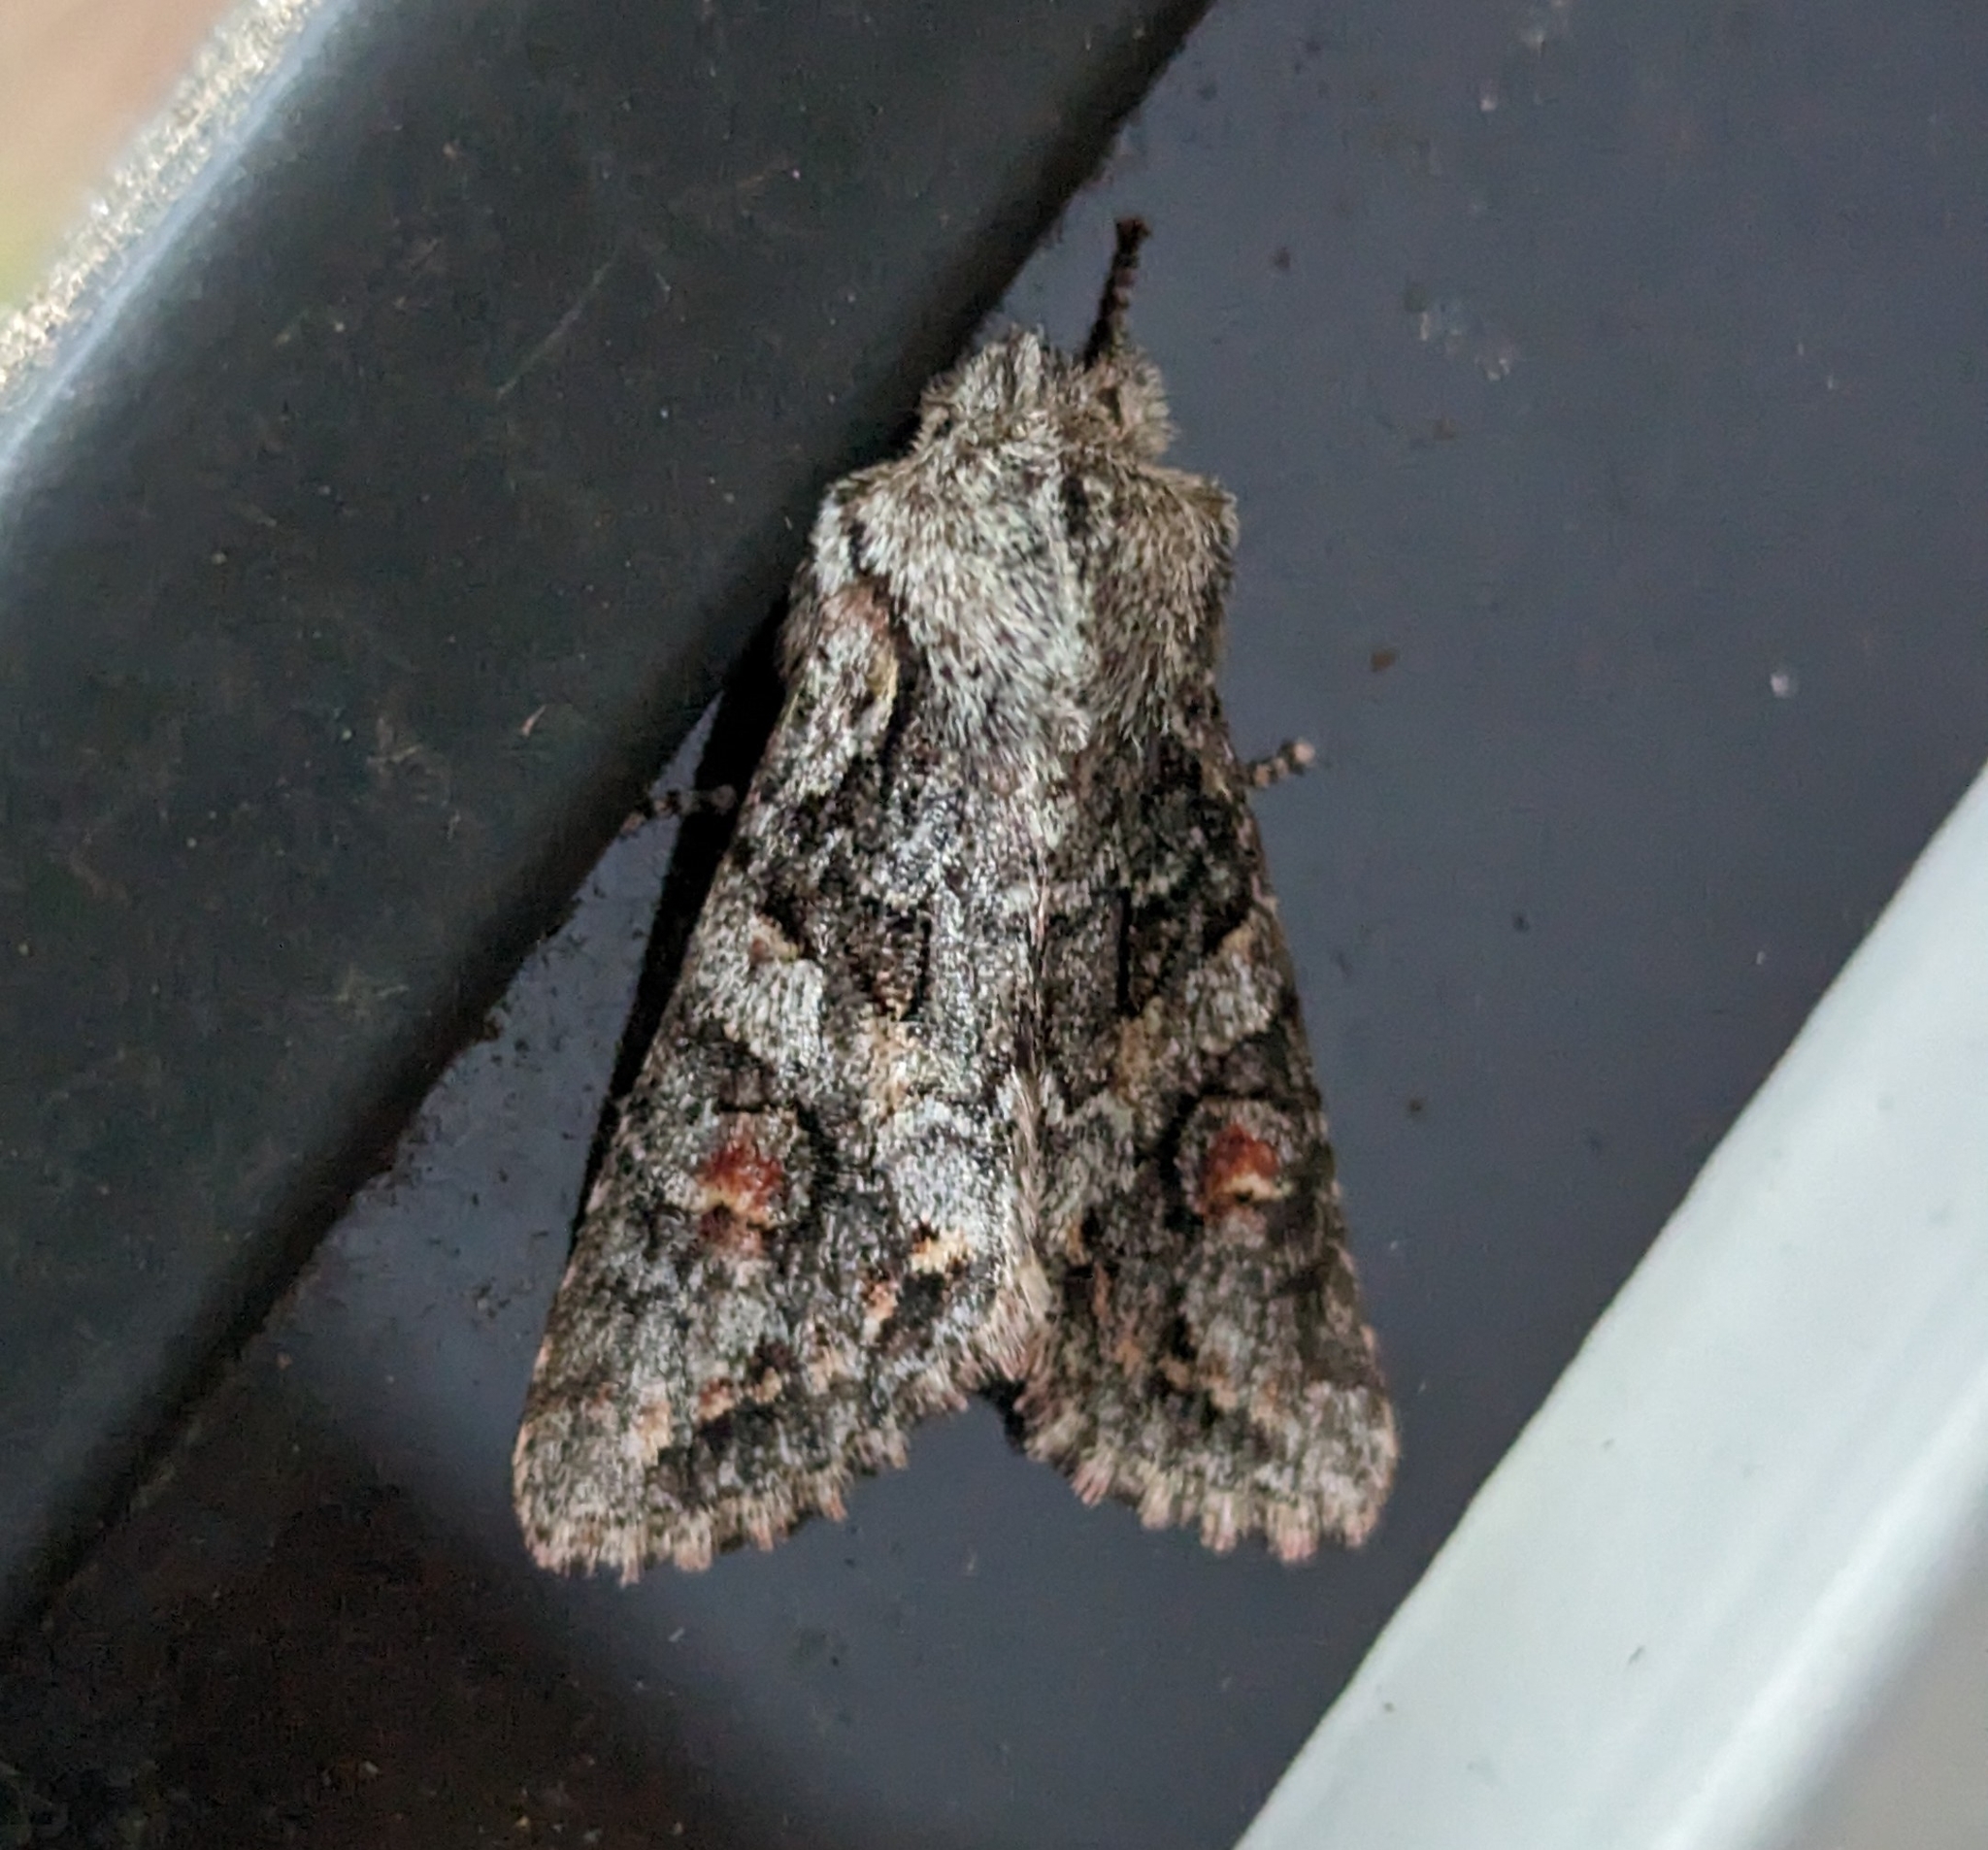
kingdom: Animalia
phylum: Arthropoda
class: Insecta
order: Lepidoptera
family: Noctuidae
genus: Egira
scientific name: Egira hiemalis
